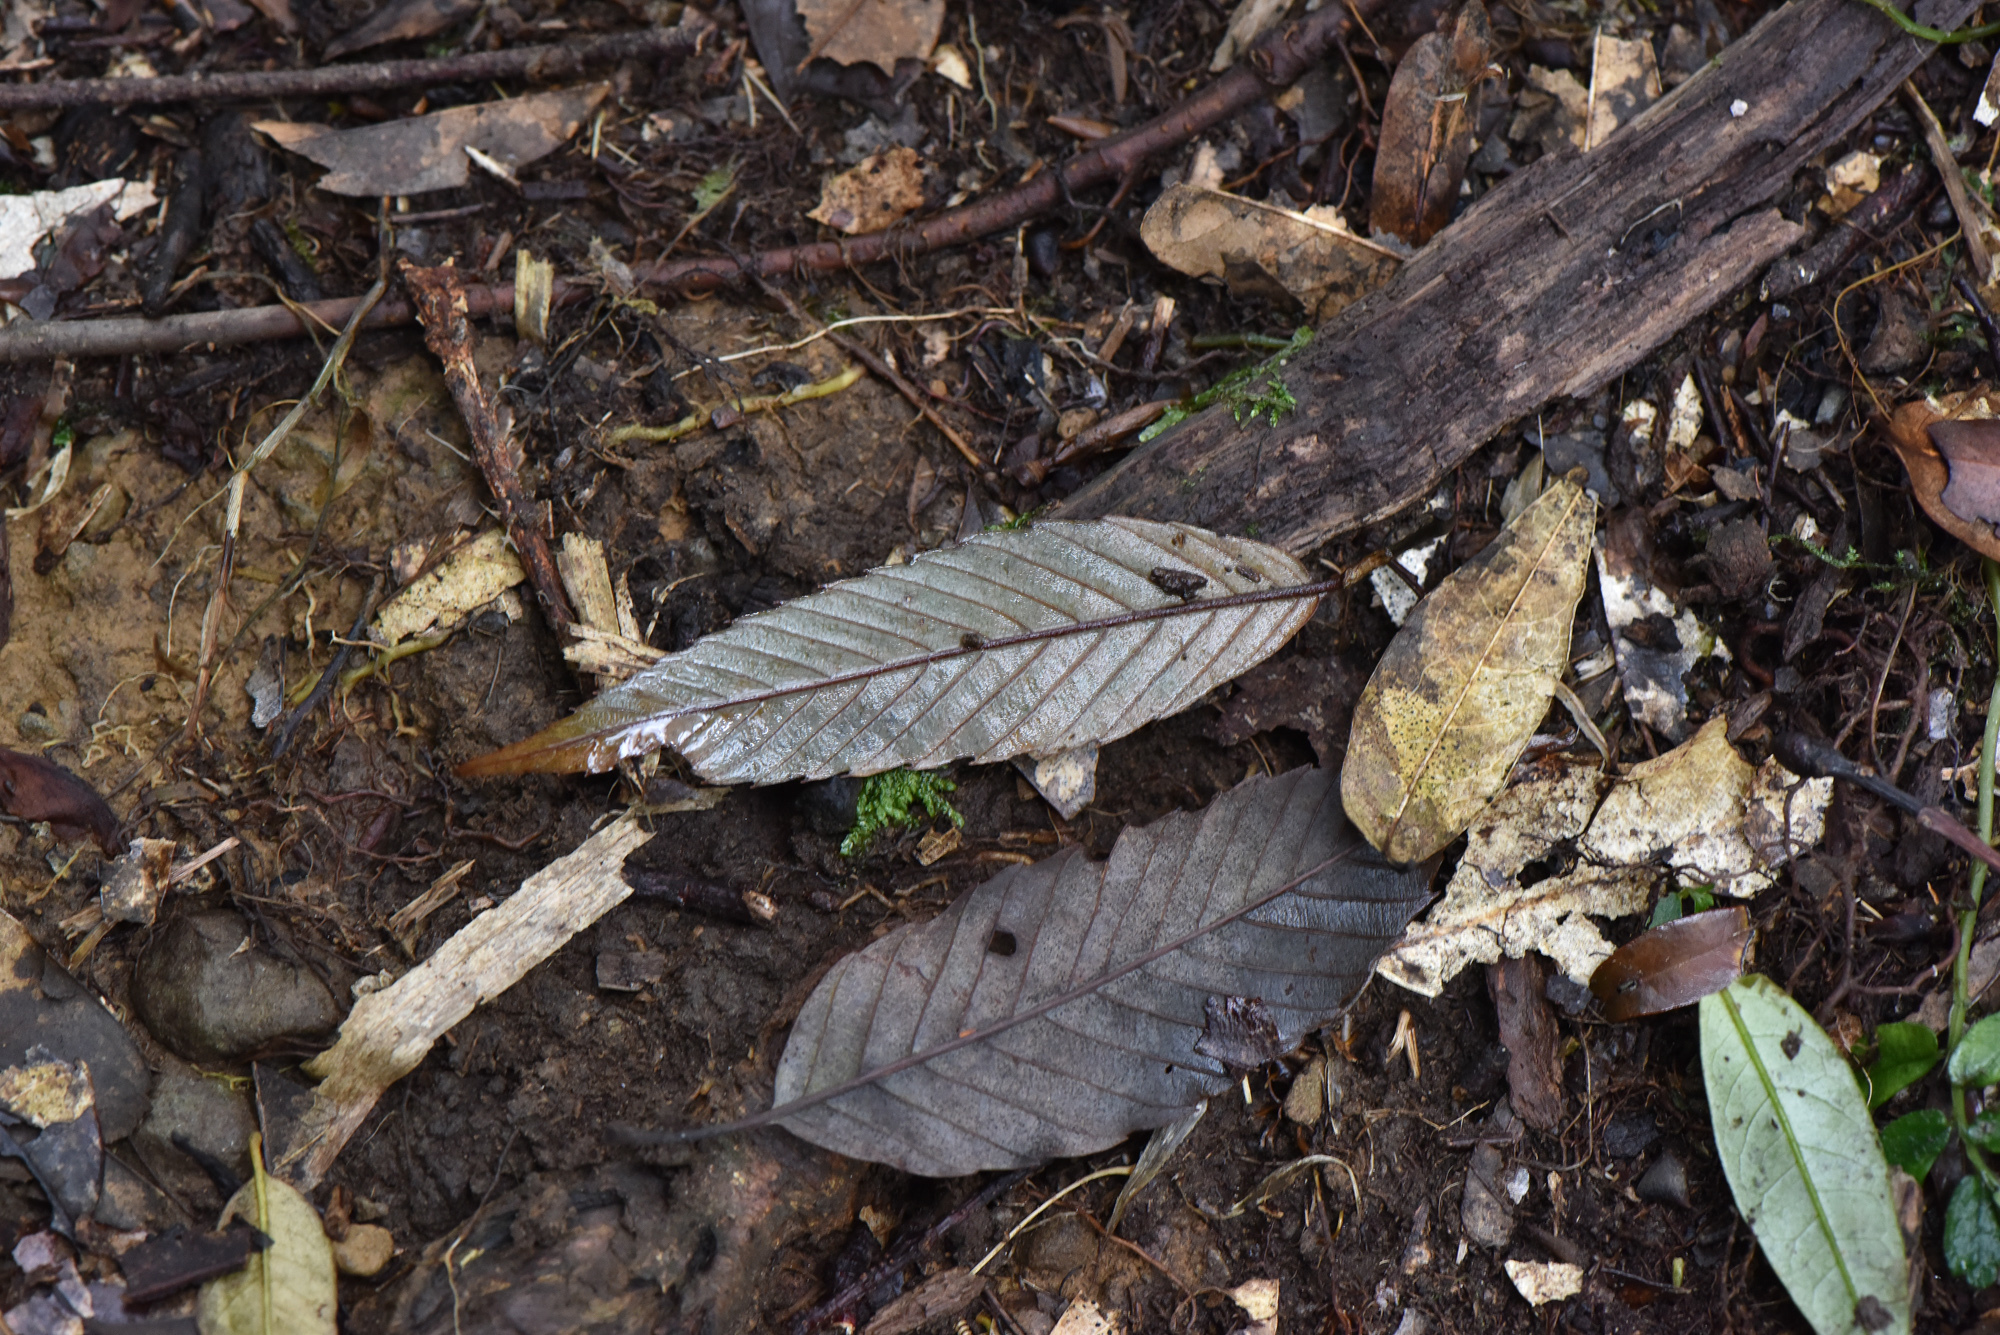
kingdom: Plantae
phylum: Tracheophyta
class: Magnoliopsida
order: Fagales
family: Fagaceae
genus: Quercus
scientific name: Quercus stenophylloides
